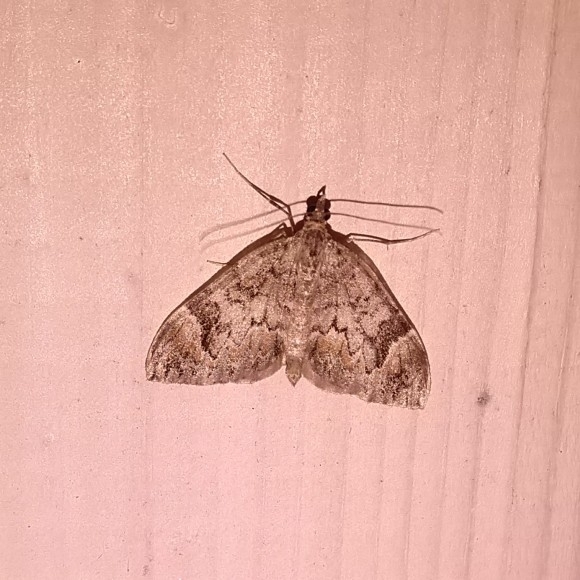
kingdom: Animalia
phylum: Arthropoda
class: Insecta
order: Lepidoptera
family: Geometridae
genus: Dysstroma
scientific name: Dysstroma citrata
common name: Dark marbled carpet
